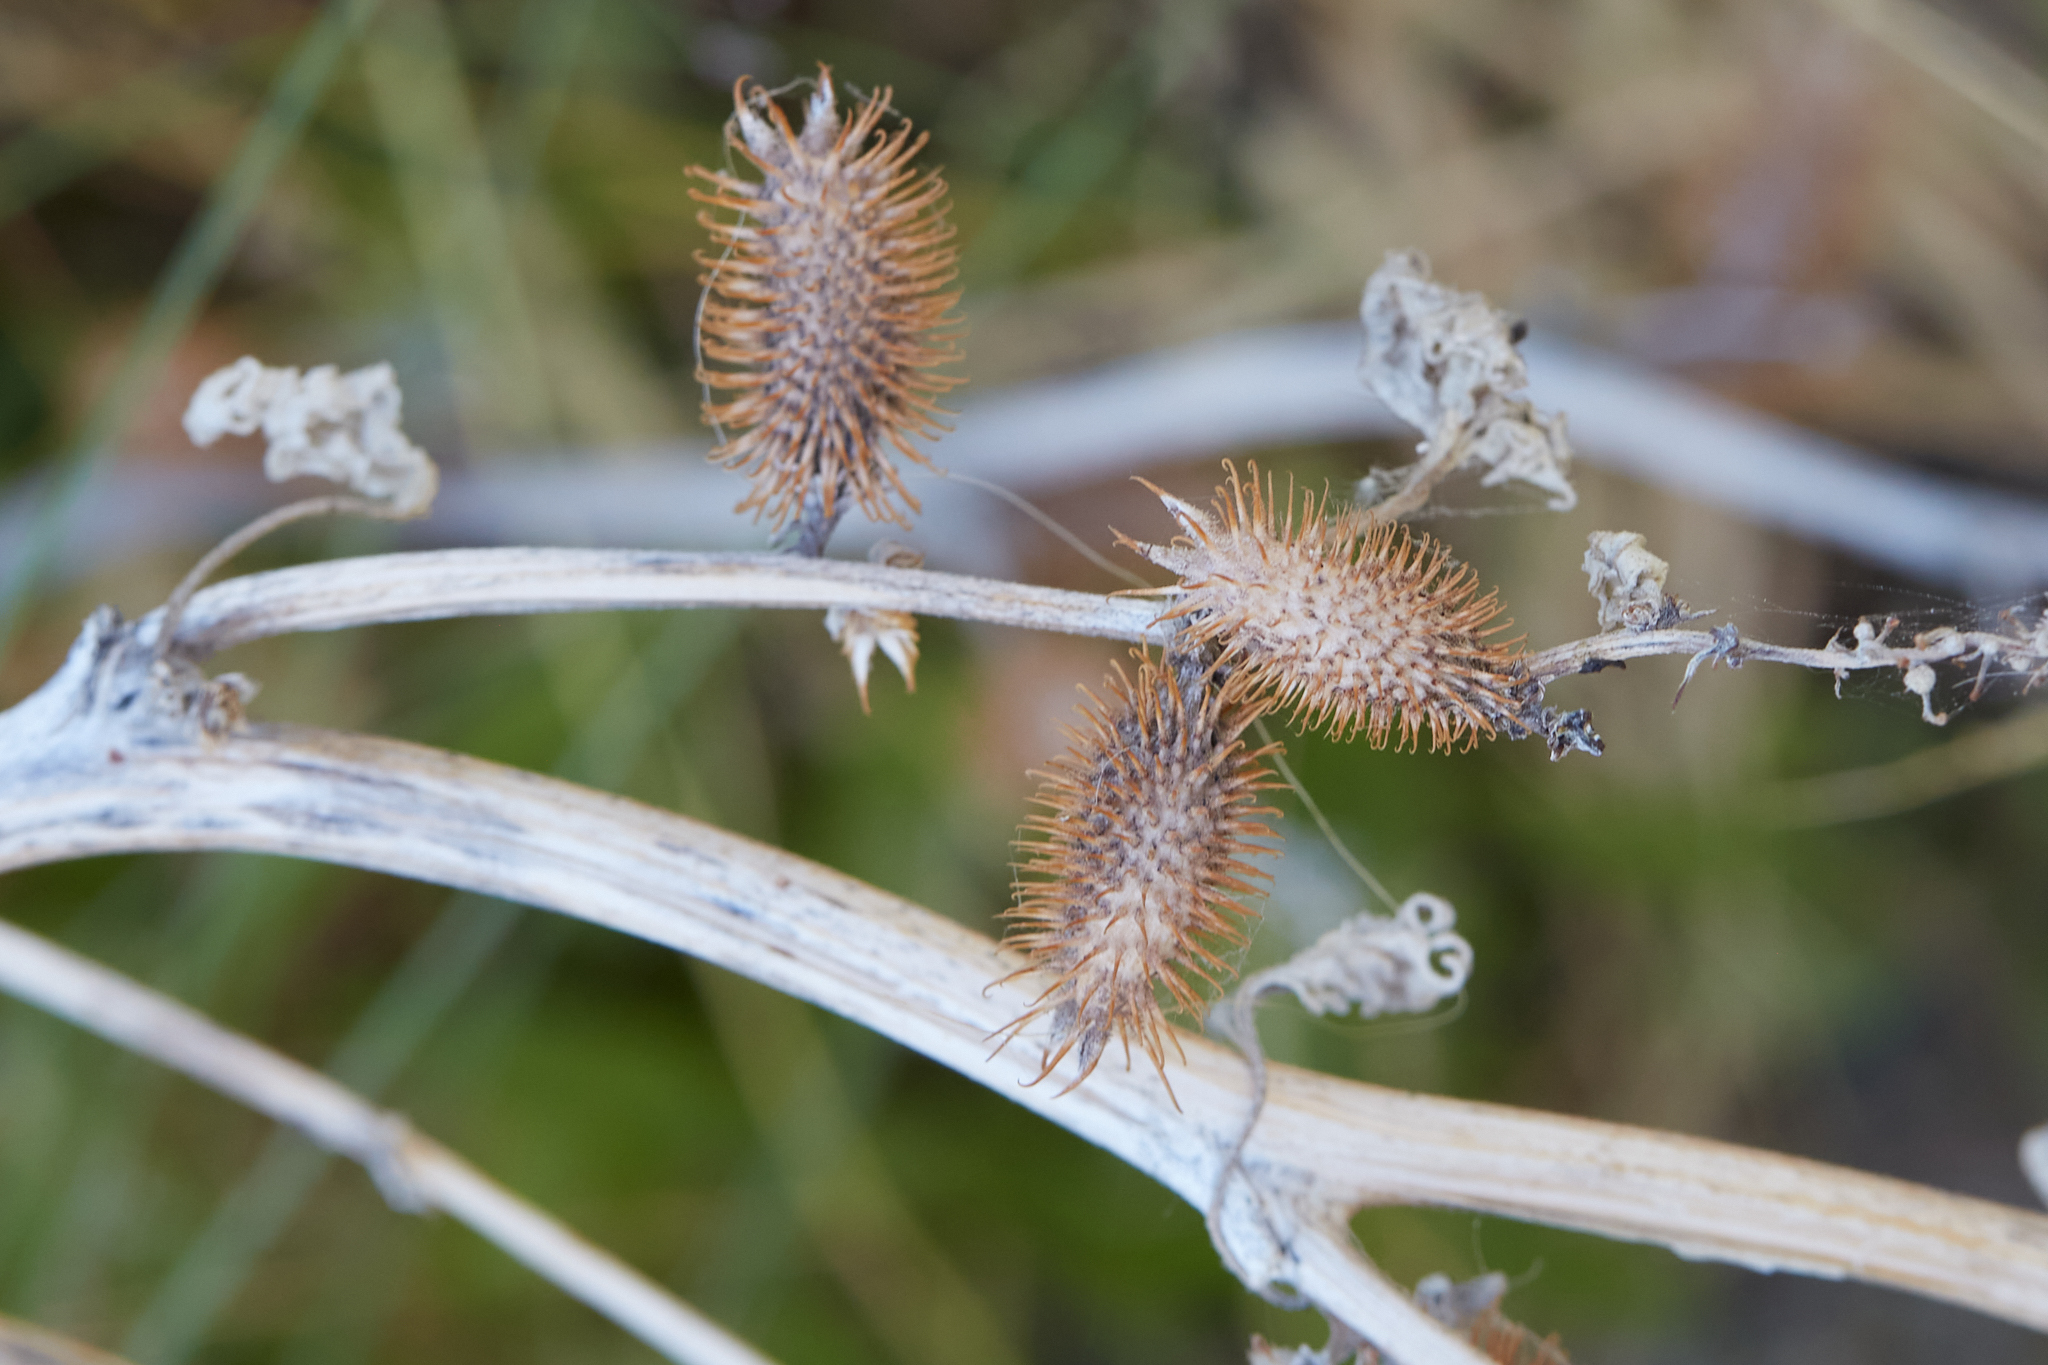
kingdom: Plantae
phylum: Tracheophyta
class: Magnoliopsida
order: Asterales
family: Asteraceae
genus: Xanthium
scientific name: Xanthium strumarium
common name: Rough cocklebur
